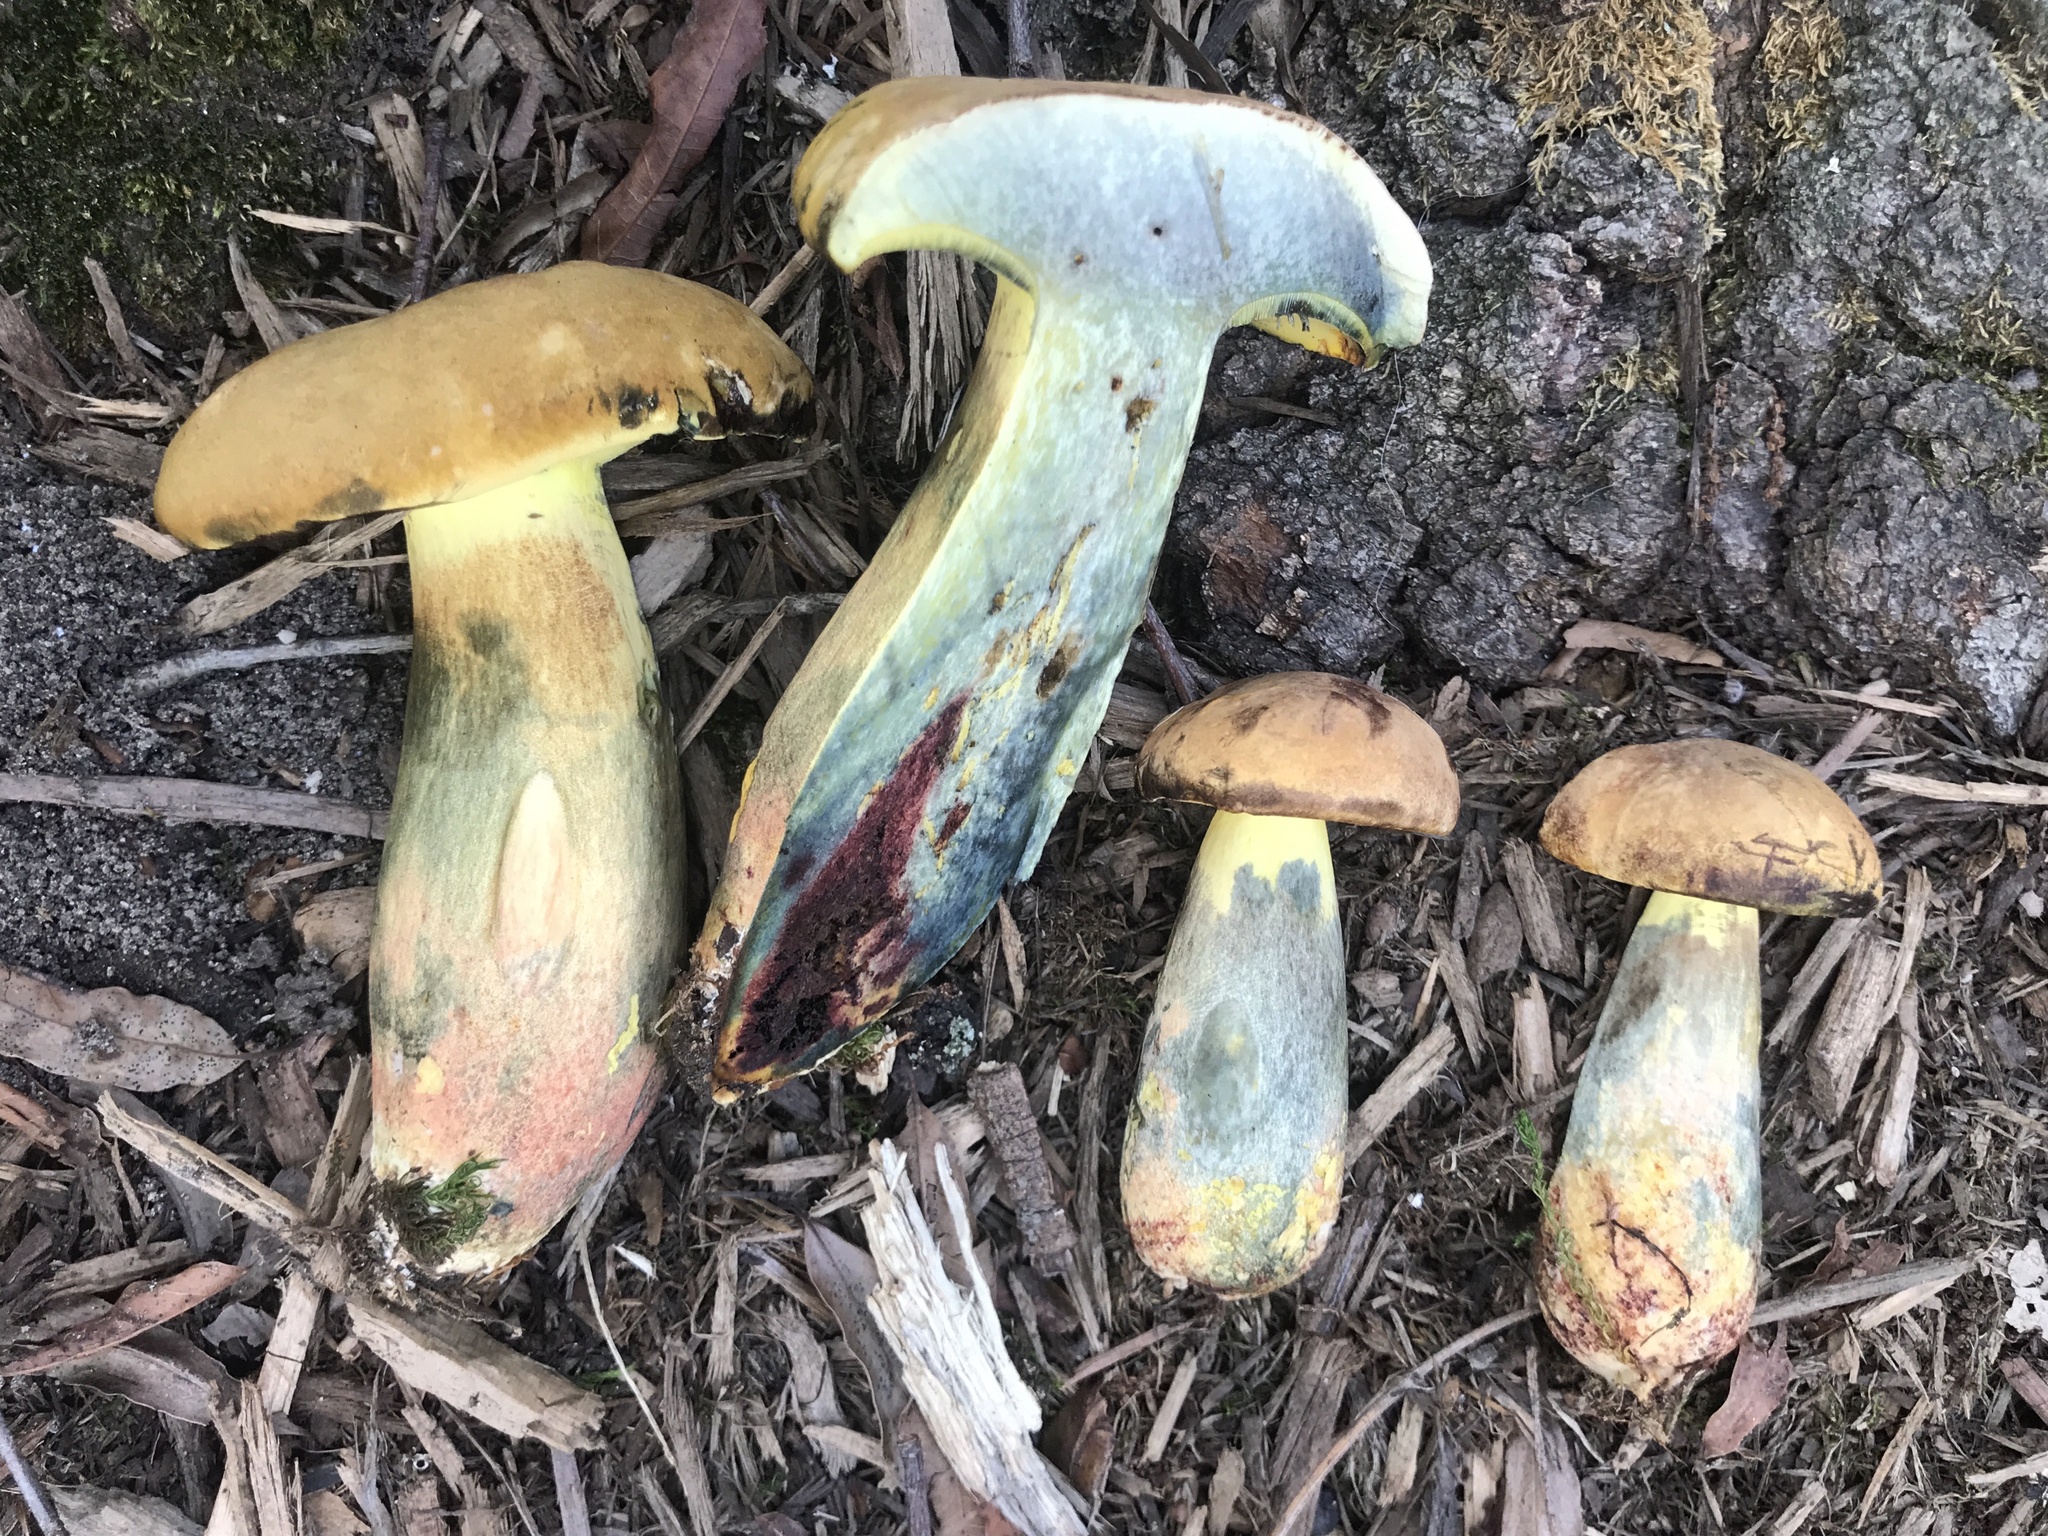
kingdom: Fungi
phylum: Basidiomycota
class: Agaricomycetes
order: Boletales
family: Boletaceae
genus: Lanmaoa
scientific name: Lanmaoa pseudosensibilis
